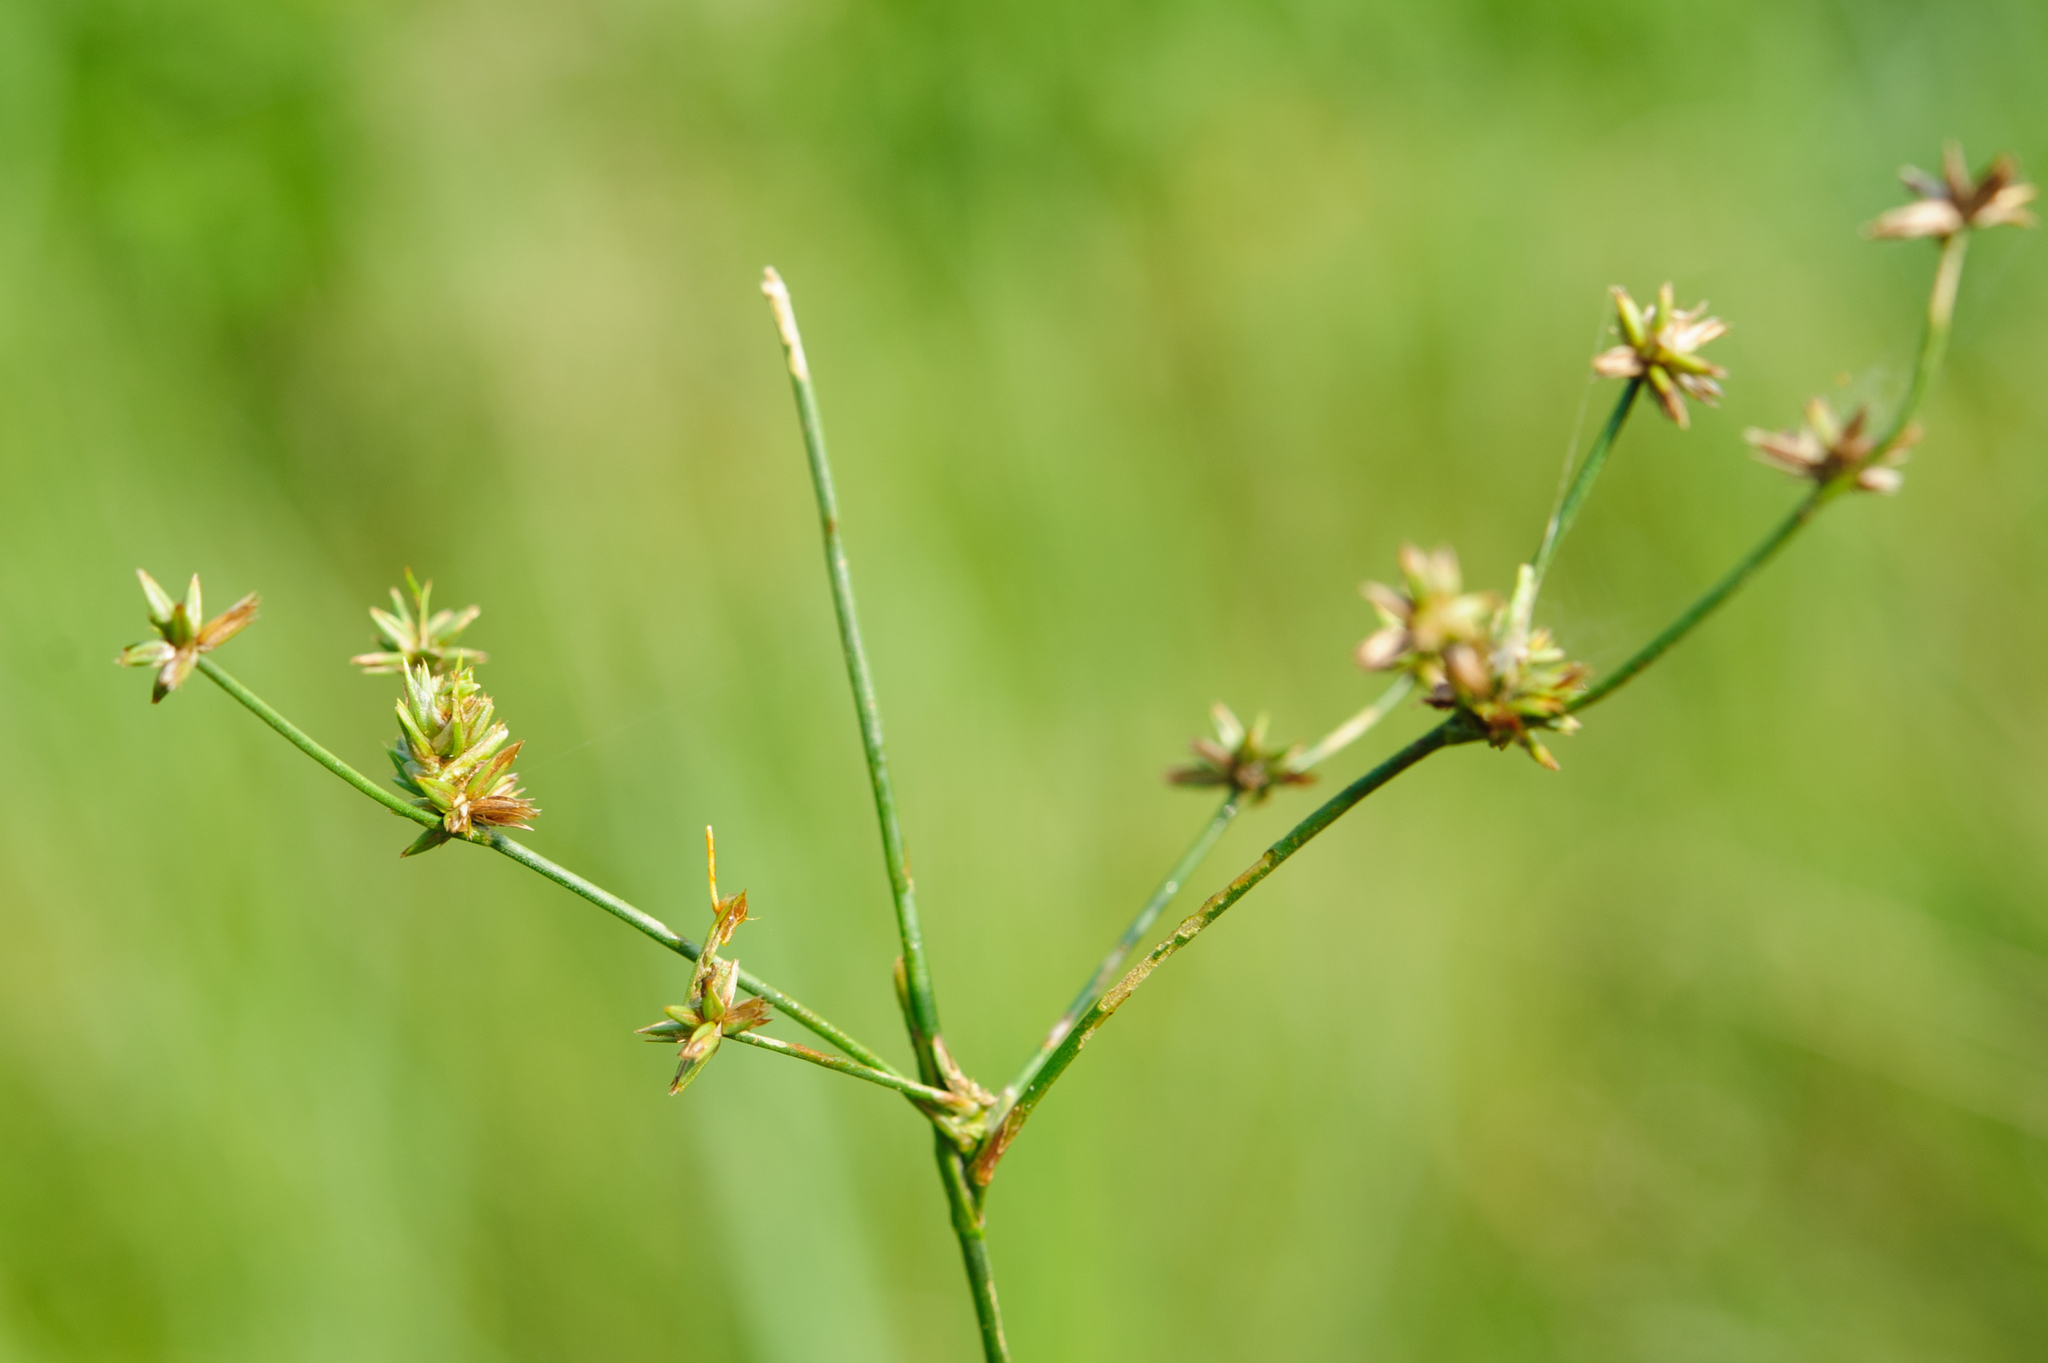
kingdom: Plantae
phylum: Tracheophyta
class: Liliopsida
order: Poales
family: Juncaceae
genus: Juncus
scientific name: Juncus prismatocarpus
